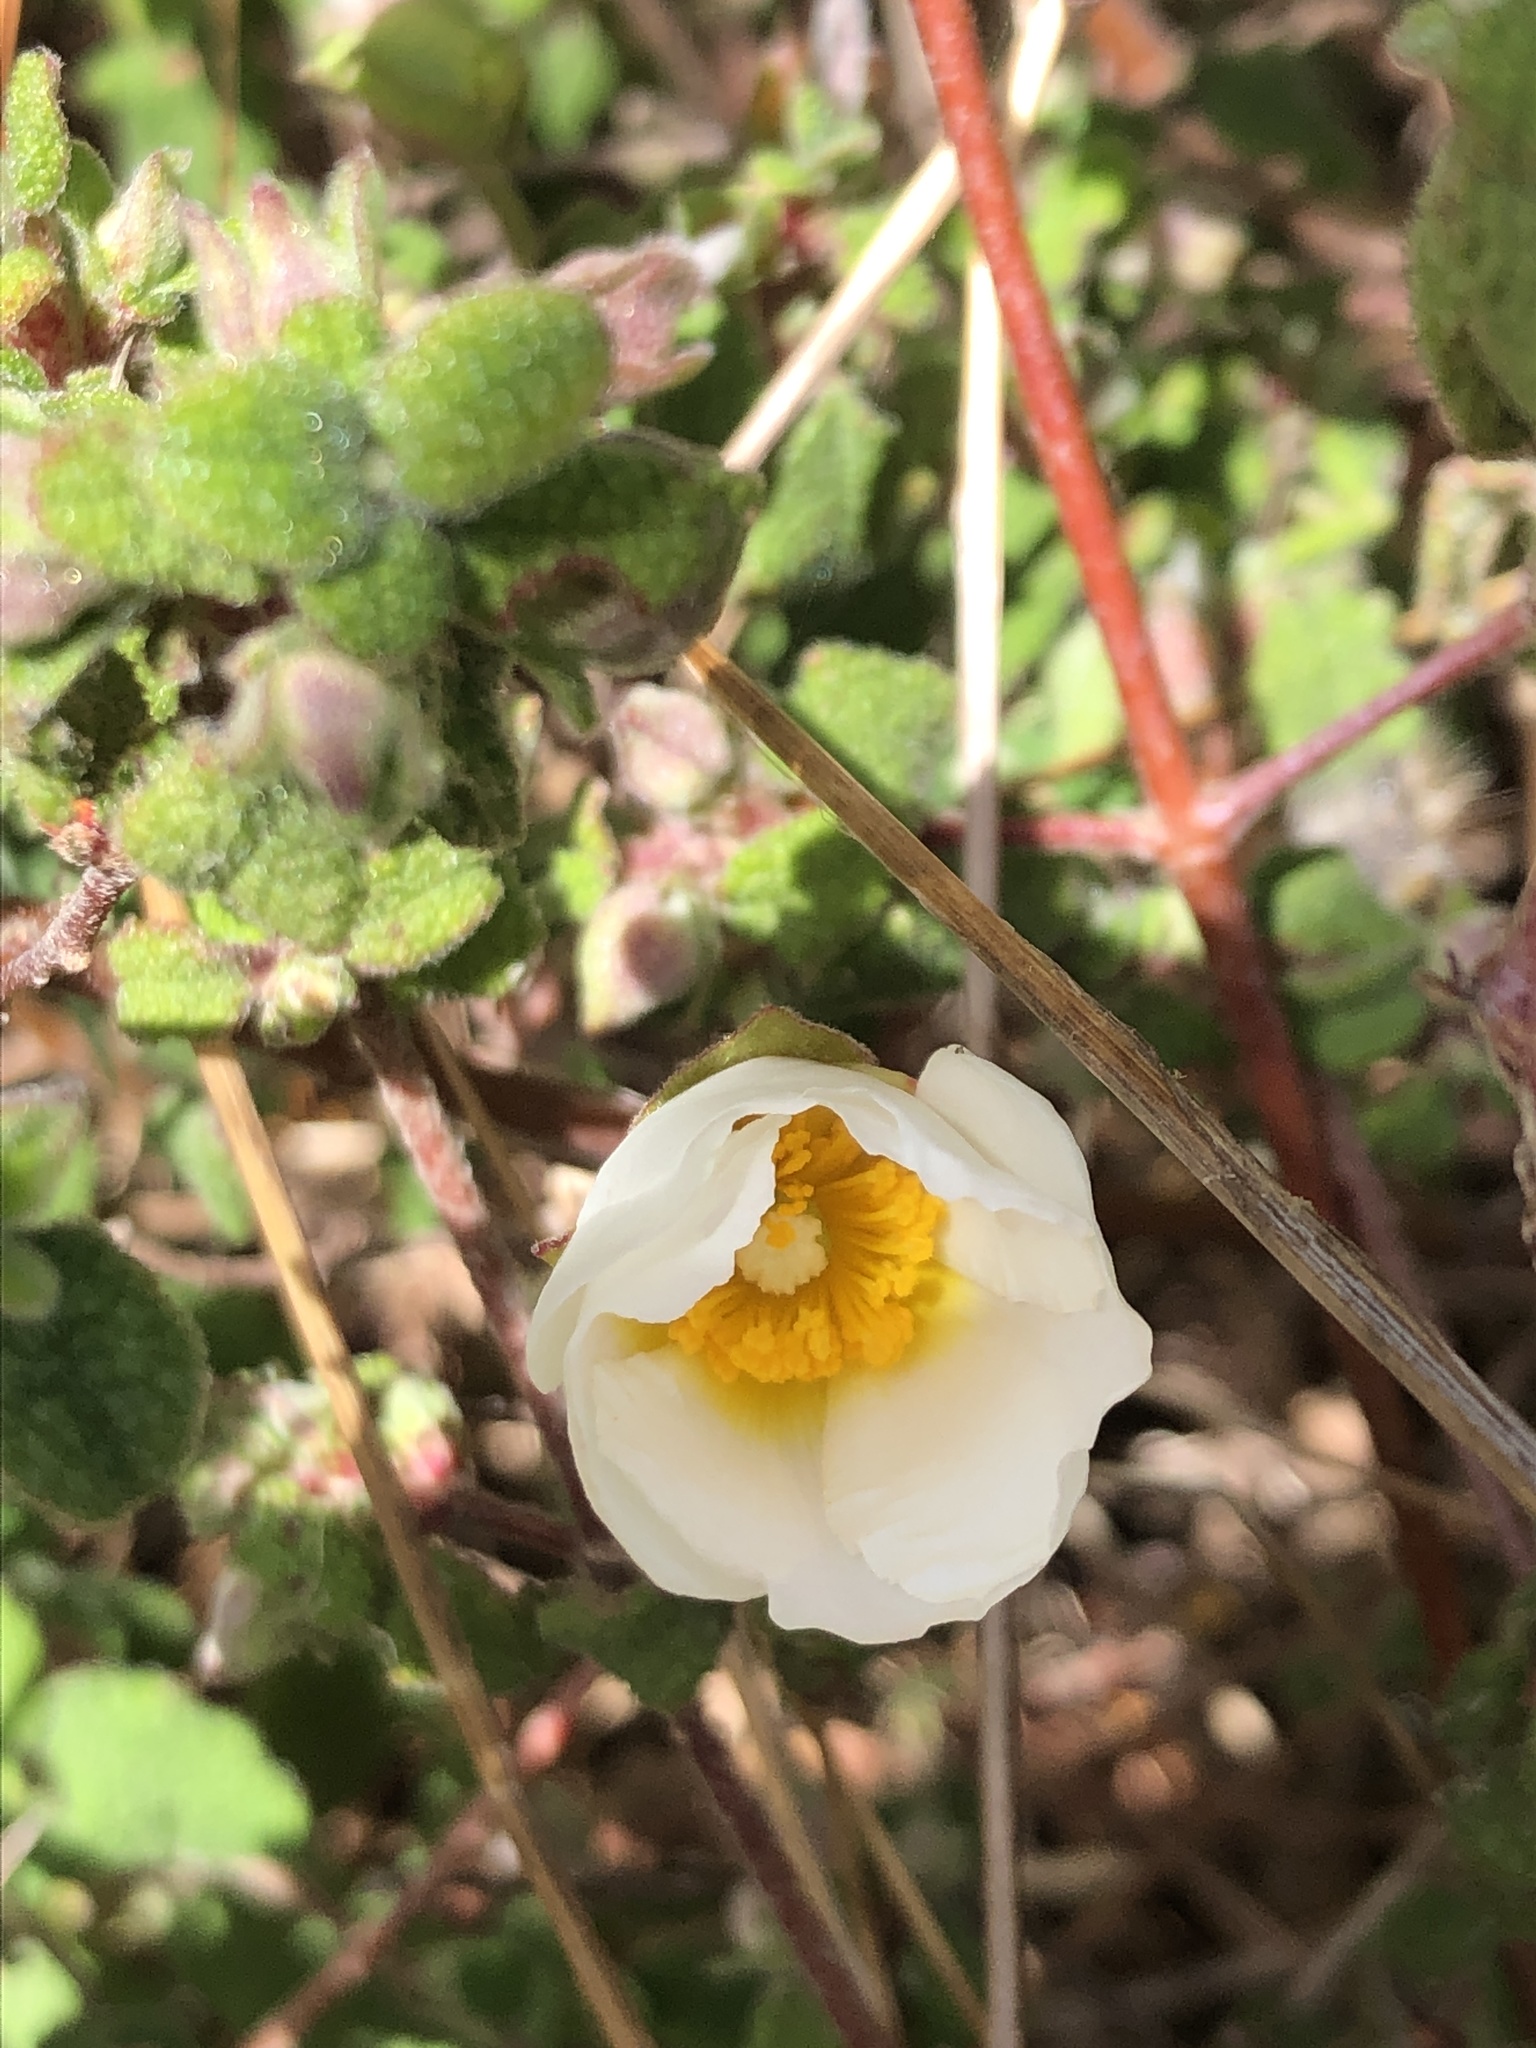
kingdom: Plantae
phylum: Tracheophyta
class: Magnoliopsida
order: Malvales
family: Cistaceae
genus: Cistus
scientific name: Cistus salviifolius
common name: Salvia cistus
